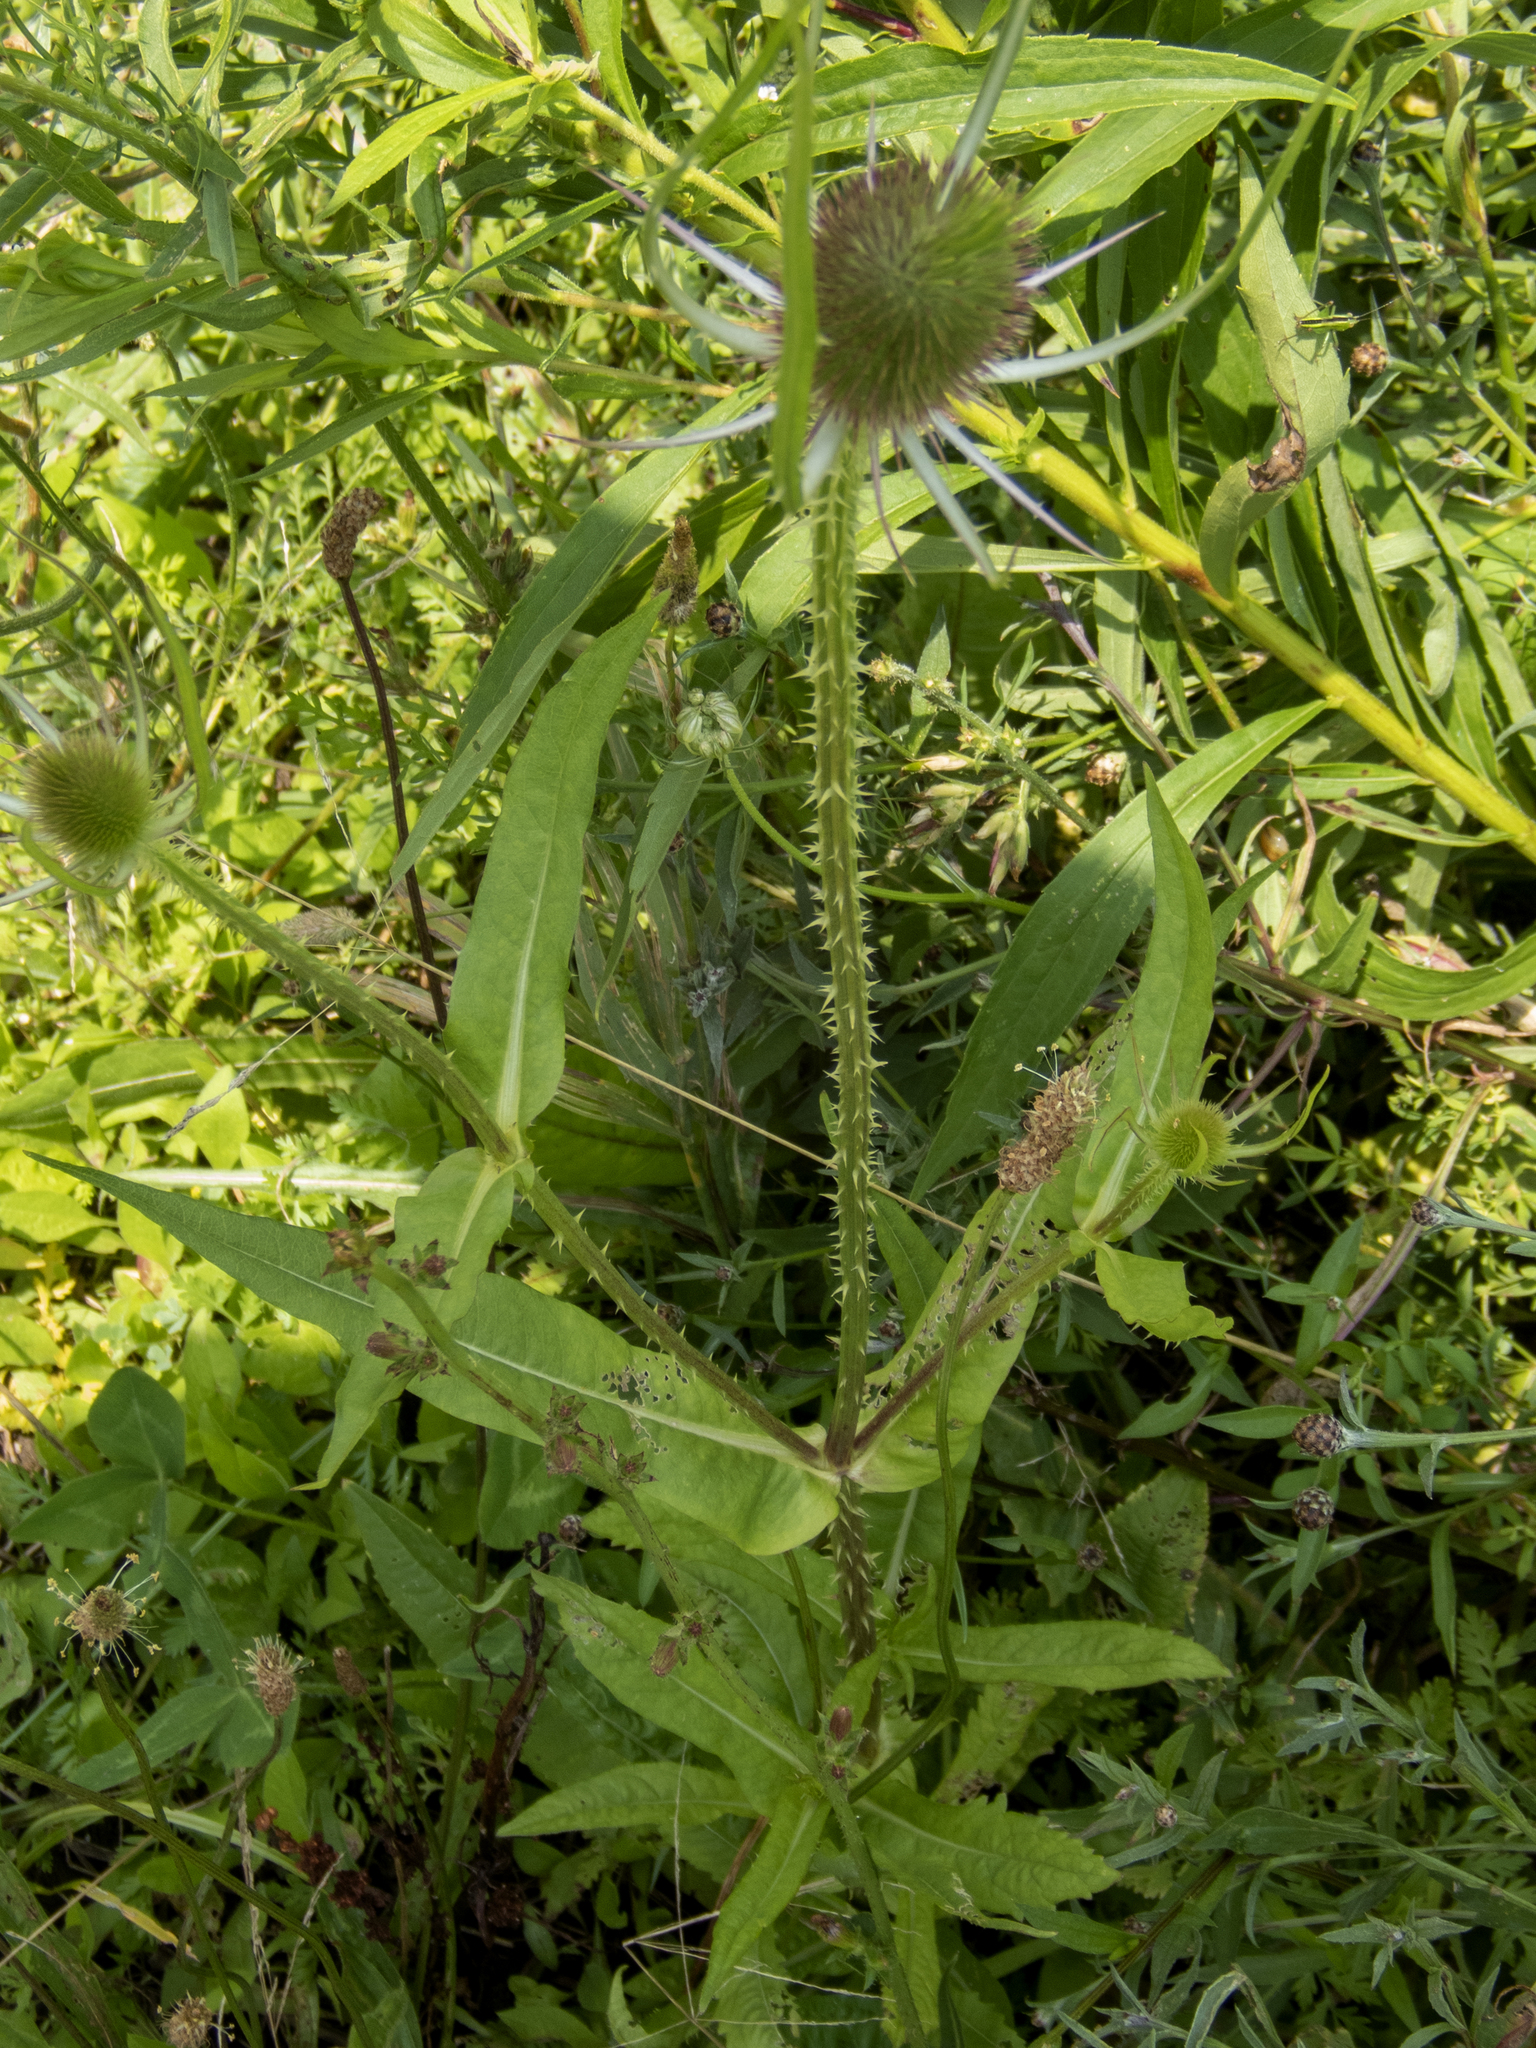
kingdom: Plantae
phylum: Tracheophyta
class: Magnoliopsida
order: Dipsacales
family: Caprifoliaceae
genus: Dipsacus
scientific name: Dipsacus fullonum
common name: Teasel
